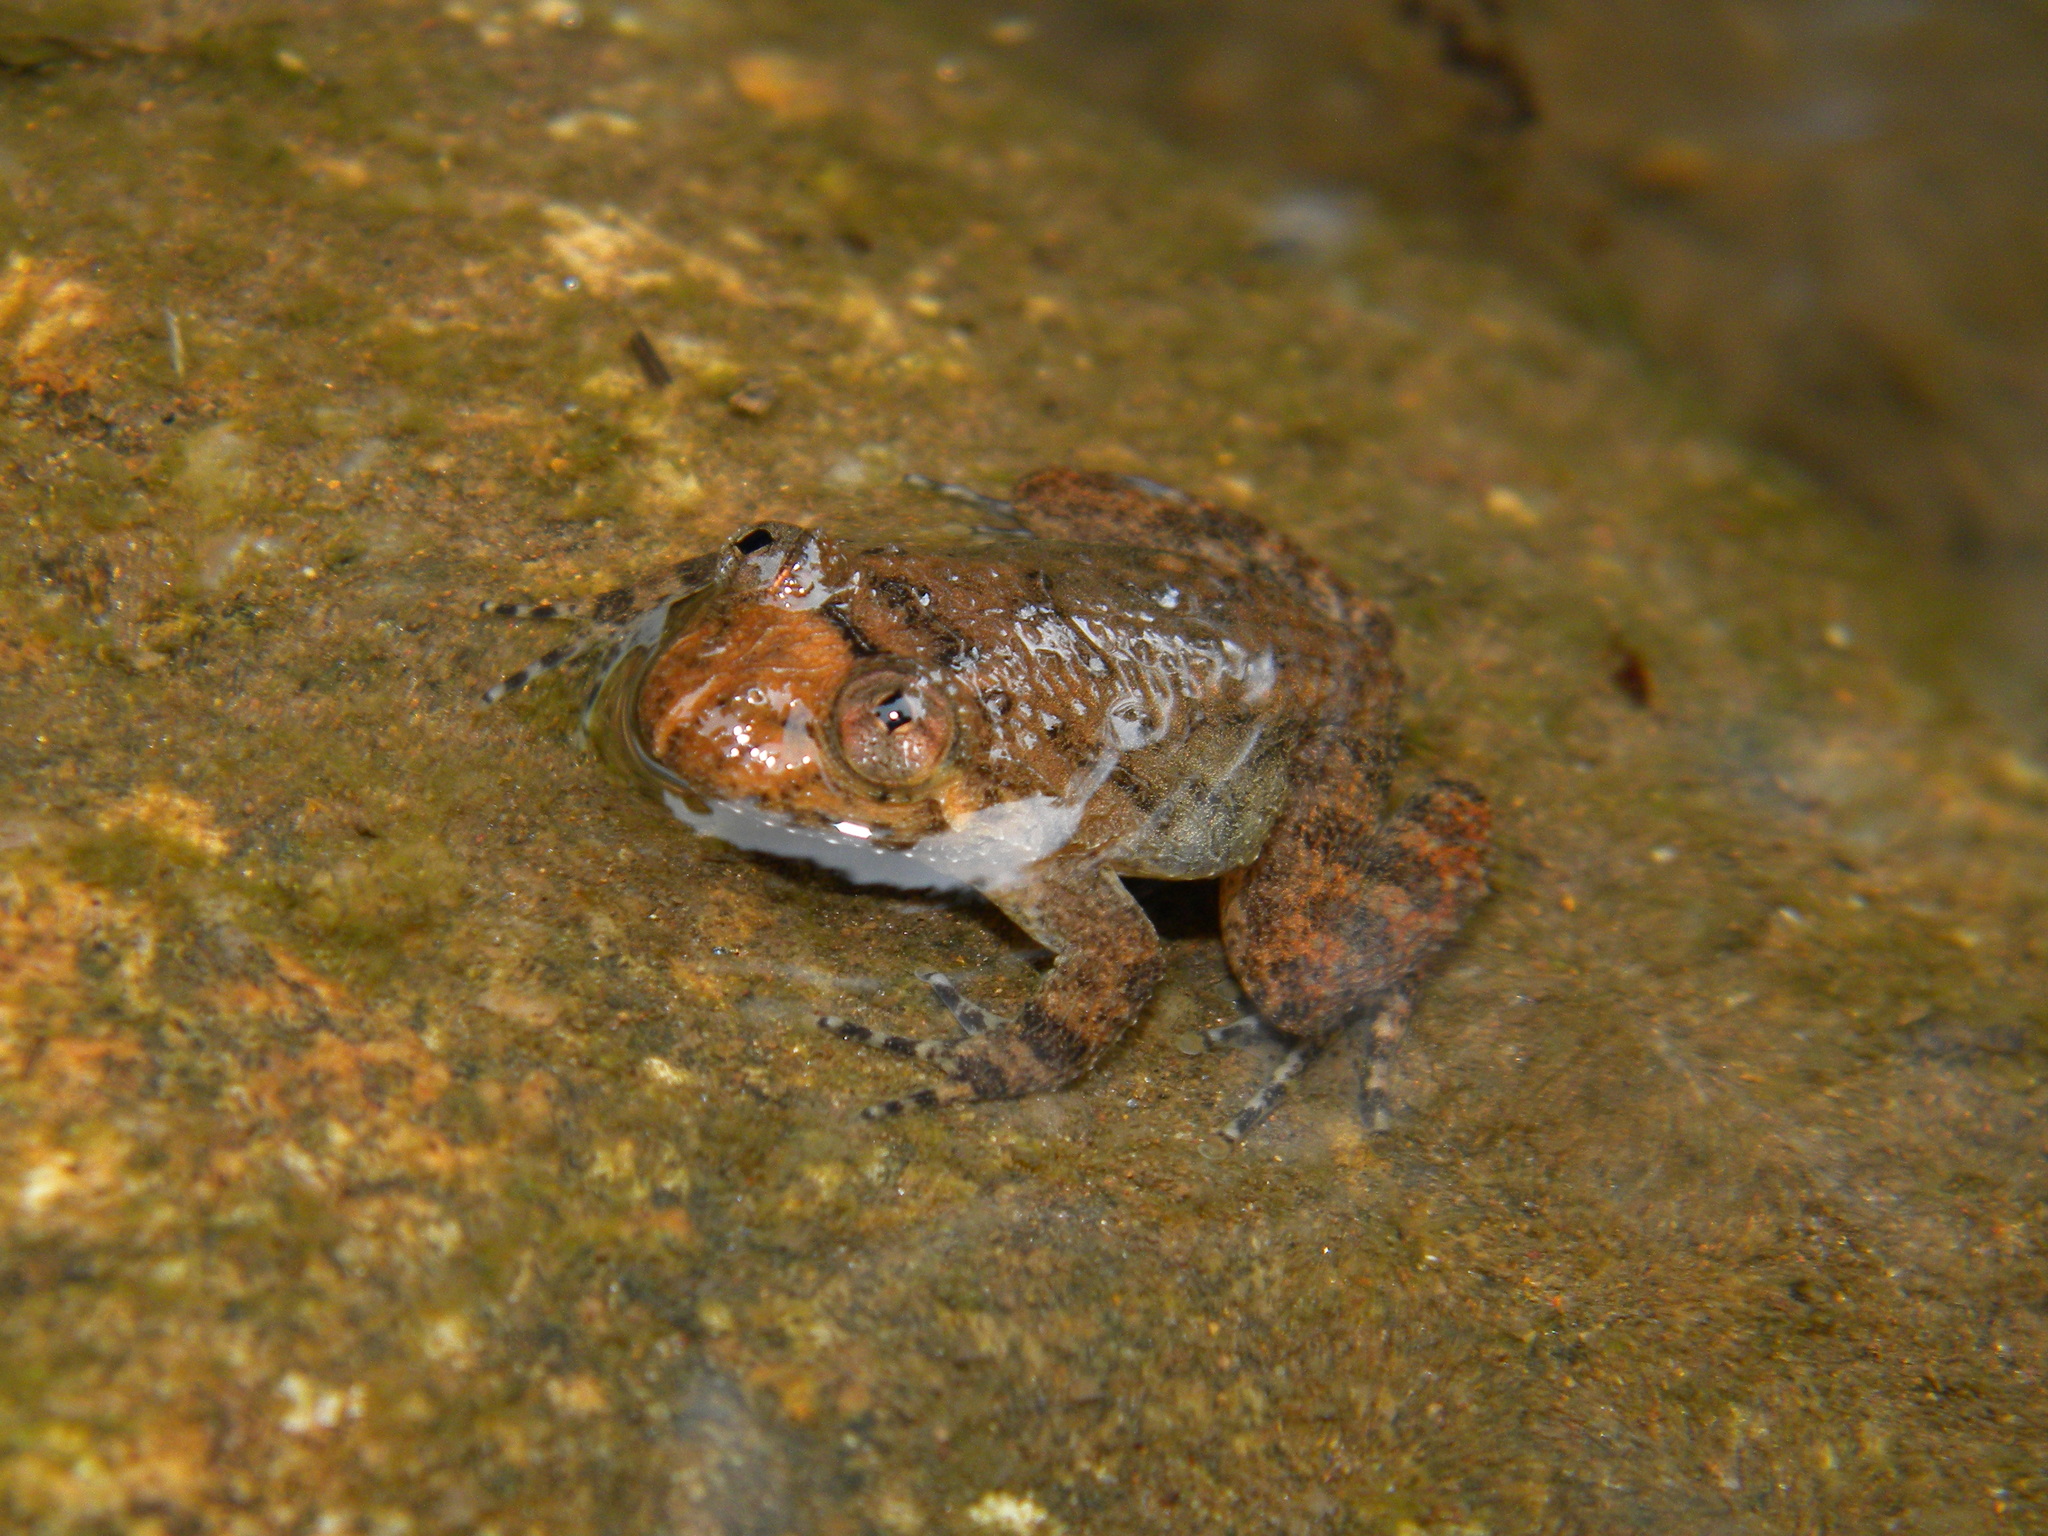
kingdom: Animalia
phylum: Chordata
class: Amphibia
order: Anura
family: Nyctibatrachidae
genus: Nyctibatrachus
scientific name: Nyctibatrachus aliciae
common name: Alicia's night frog
